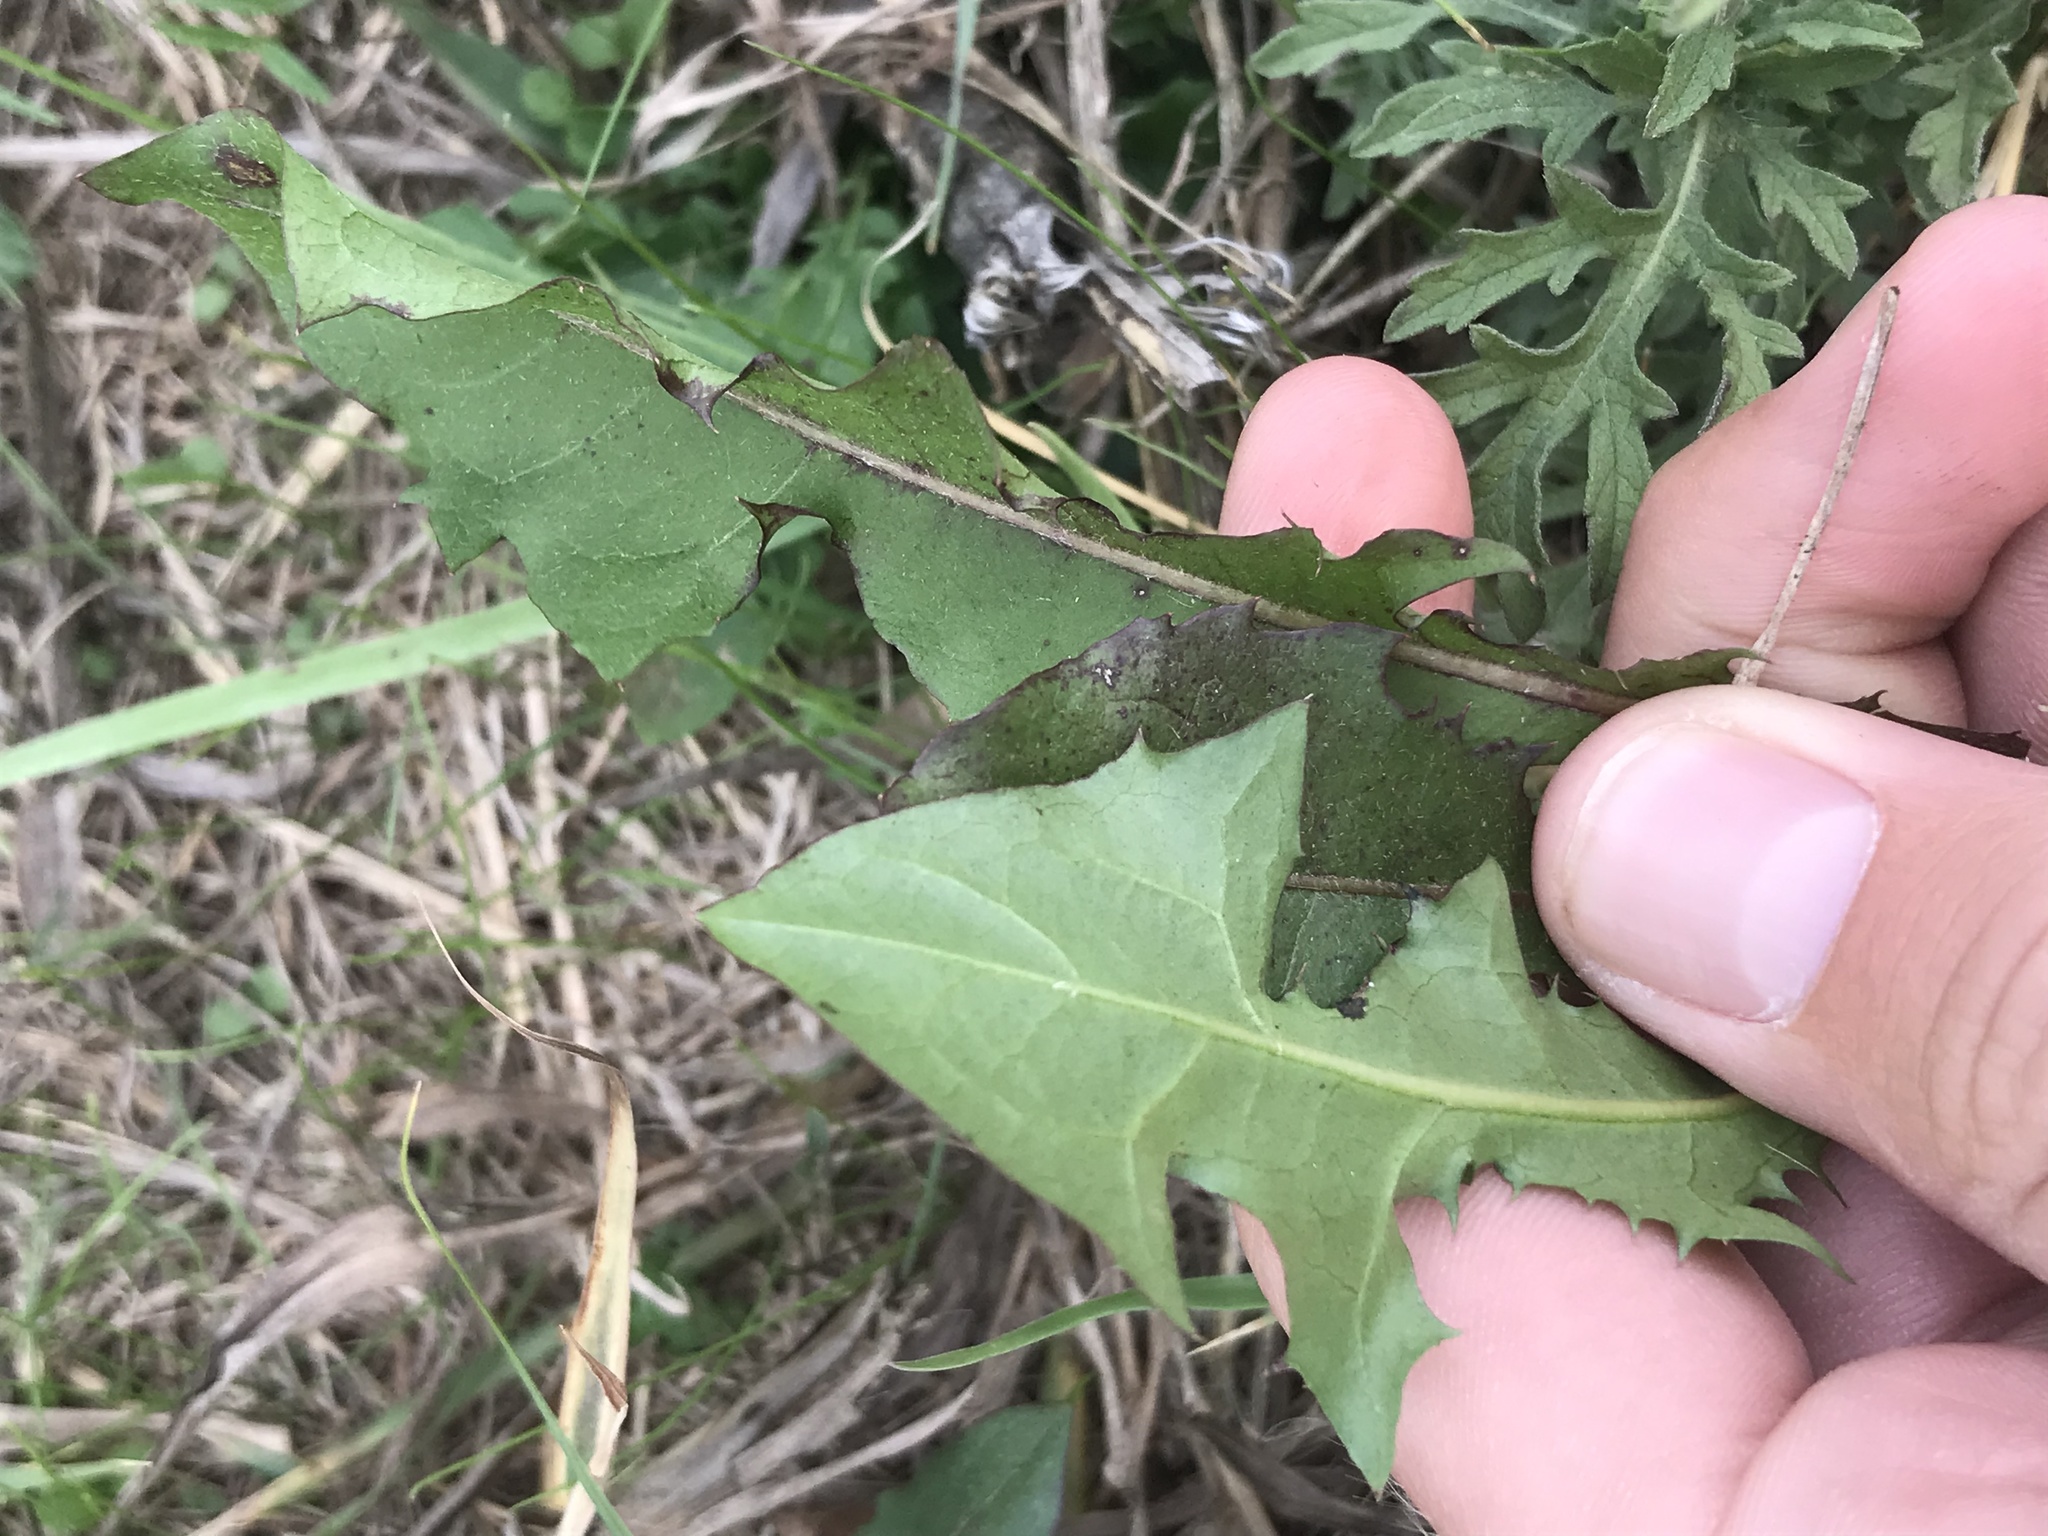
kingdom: Plantae
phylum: Tracheophyta
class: Magnoliopsida
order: Asterales
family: Asteraceae
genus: Taraxacum
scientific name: Taraxacum officinale
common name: Common dandelion
